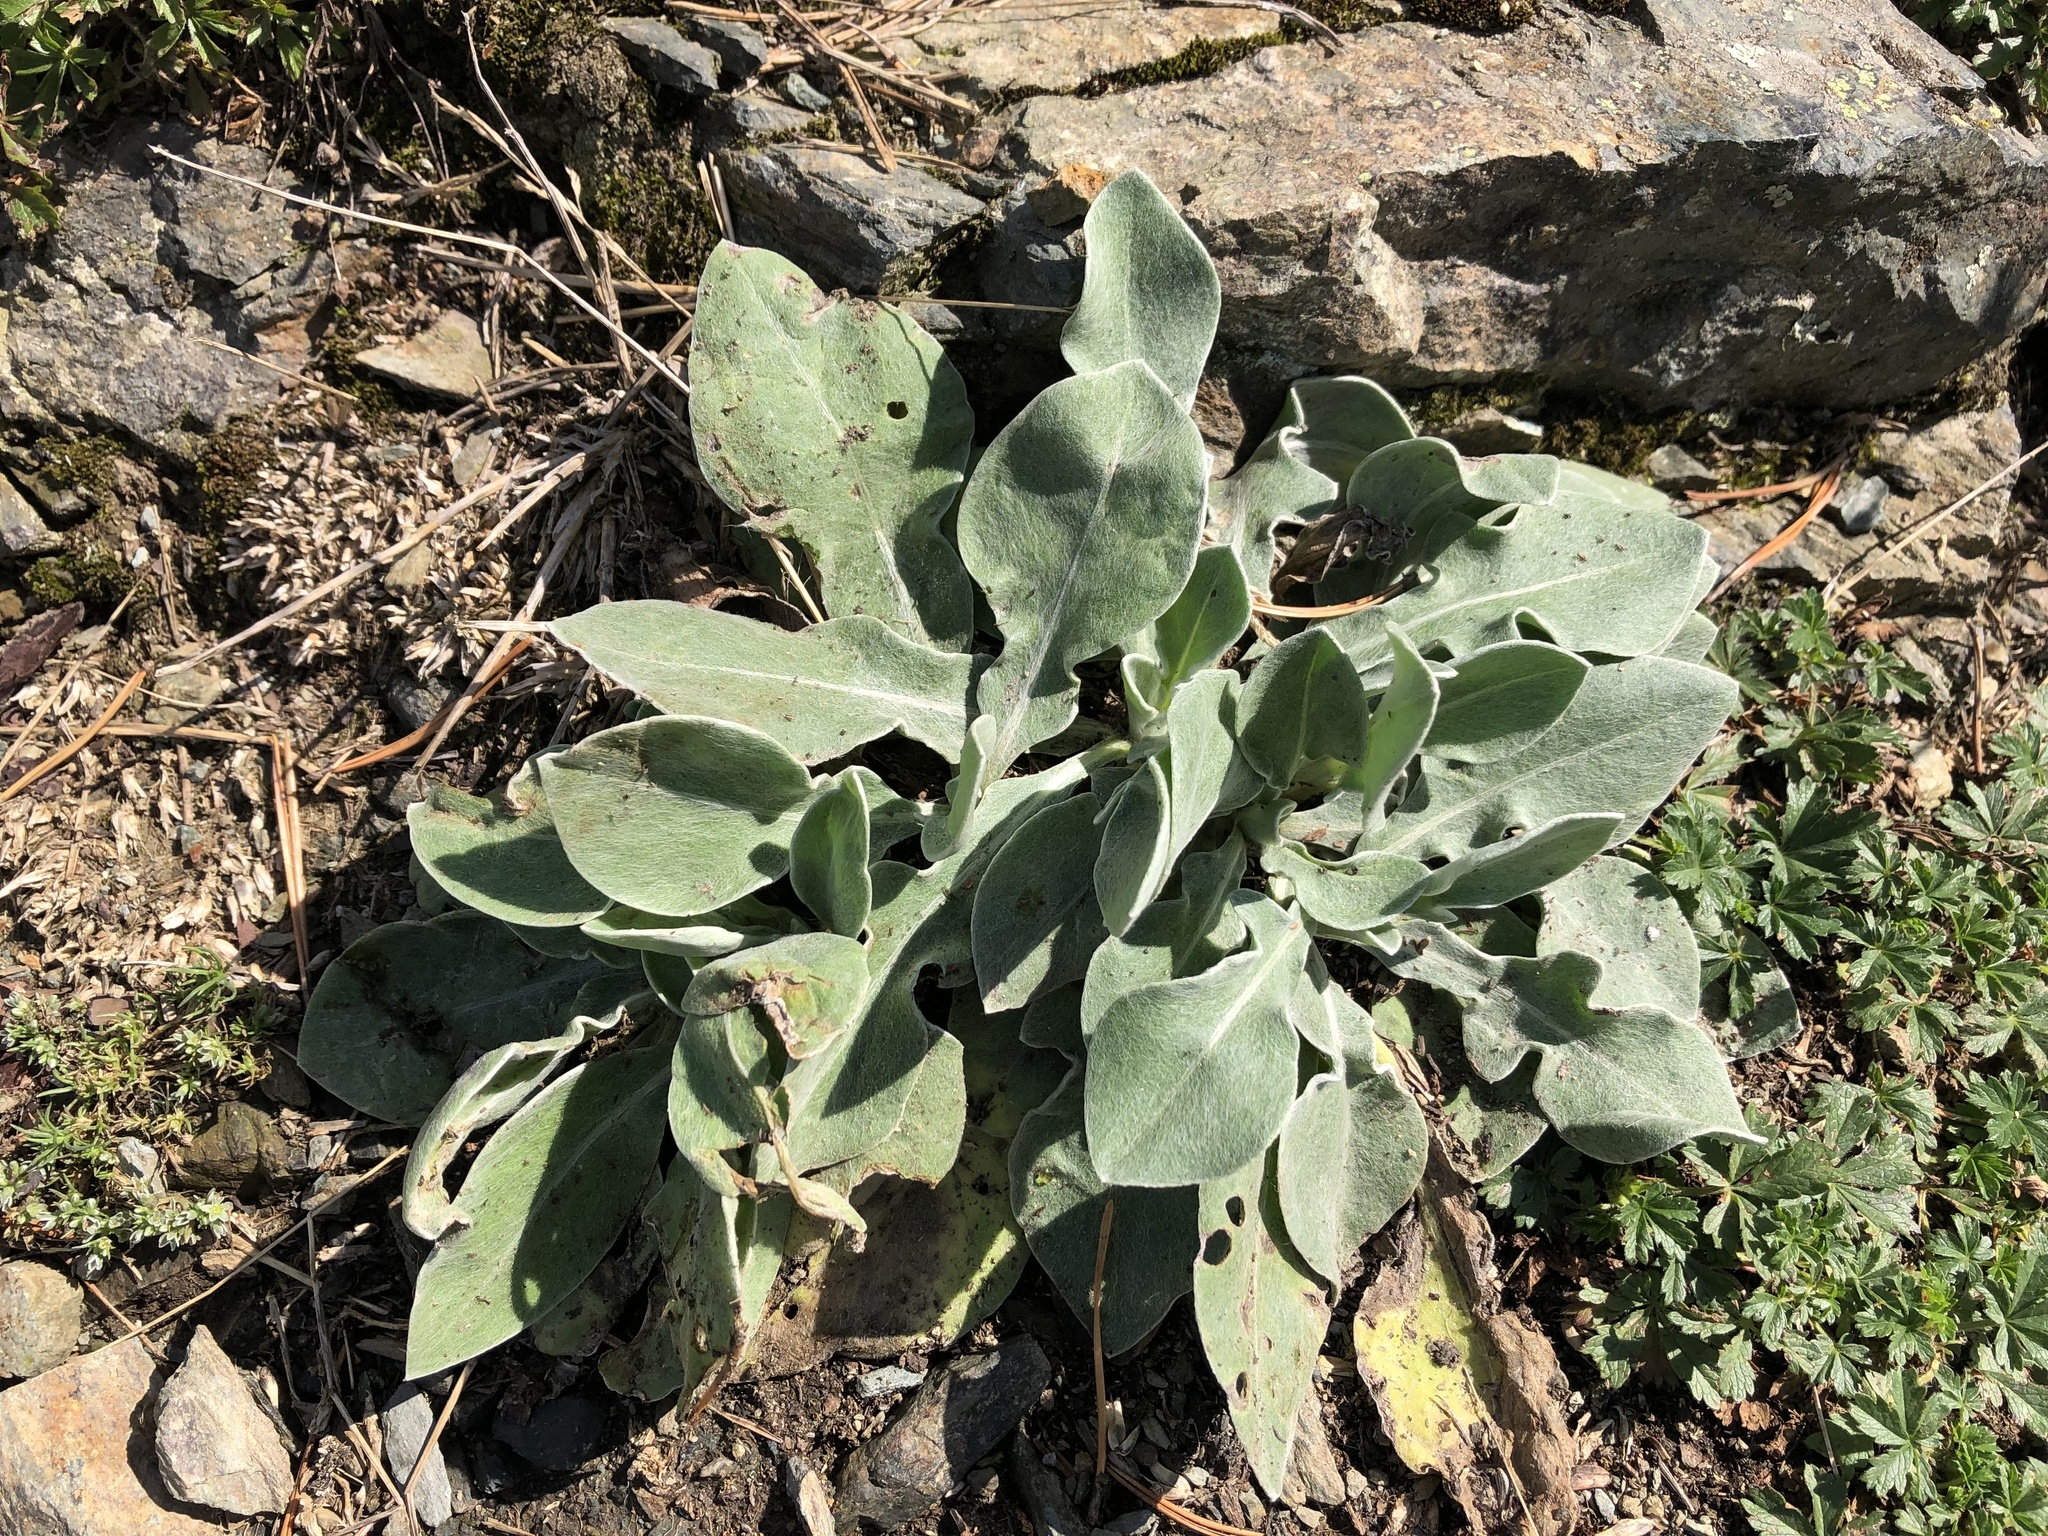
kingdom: Plantae
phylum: Tracheophyta
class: Magnoliopsida
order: Caryophyllales
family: Caryophyllaceae
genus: Silene
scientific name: Silene coronaria
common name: Rose campion
